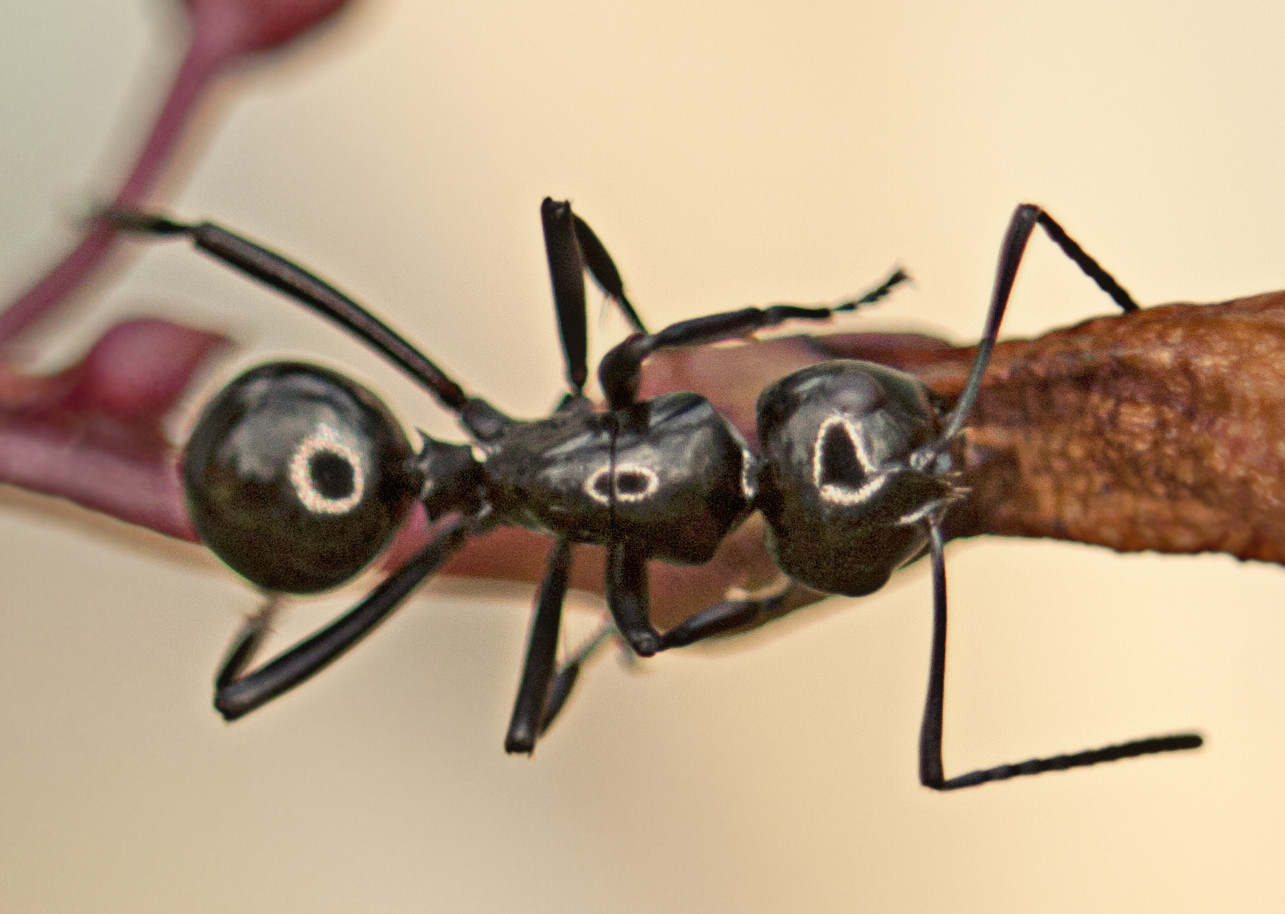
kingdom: Animalia
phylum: Arthropoda
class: Insecta
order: Hymenoptera
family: Formicidae
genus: Polyrhachis
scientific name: Polyrhachis australis
